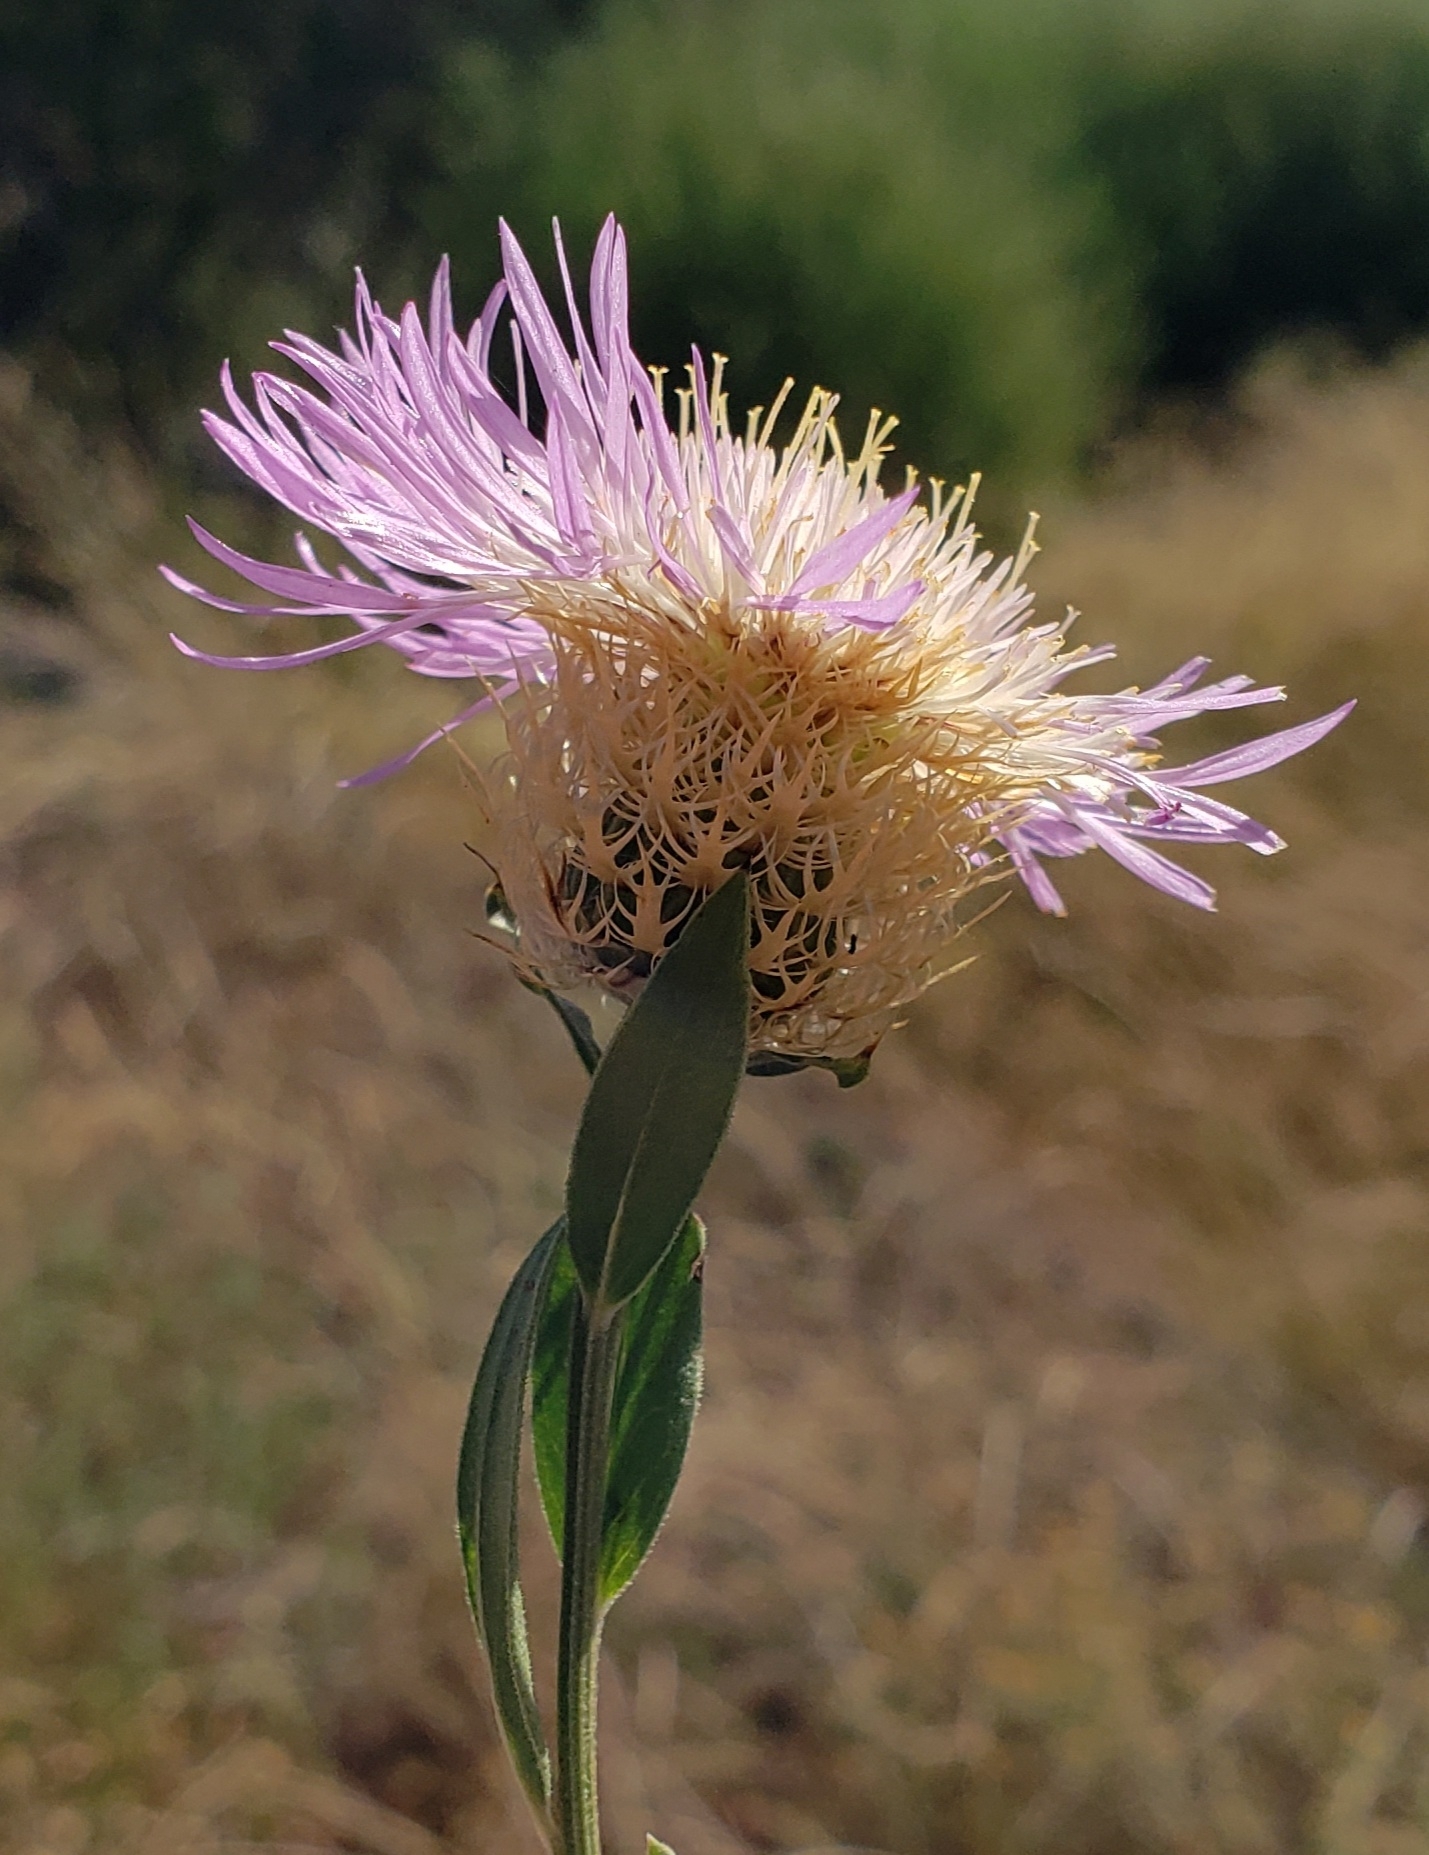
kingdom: Plantae
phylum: Tracheophyta
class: Magnoliopsida
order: Asterales
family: Asteraceae
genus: Plectocephalus
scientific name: Plectocephalus americanus
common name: American basket-flower
